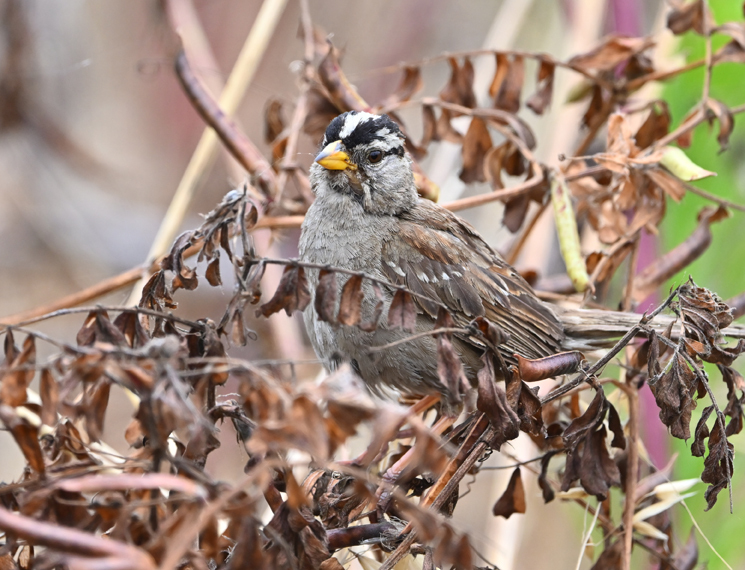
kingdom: Animalia
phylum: Chordata
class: Aves
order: Passeriformes
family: Passerellidae
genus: Zonotrichia
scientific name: Zonotrichia leucophrys
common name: White-crowned sparrow
